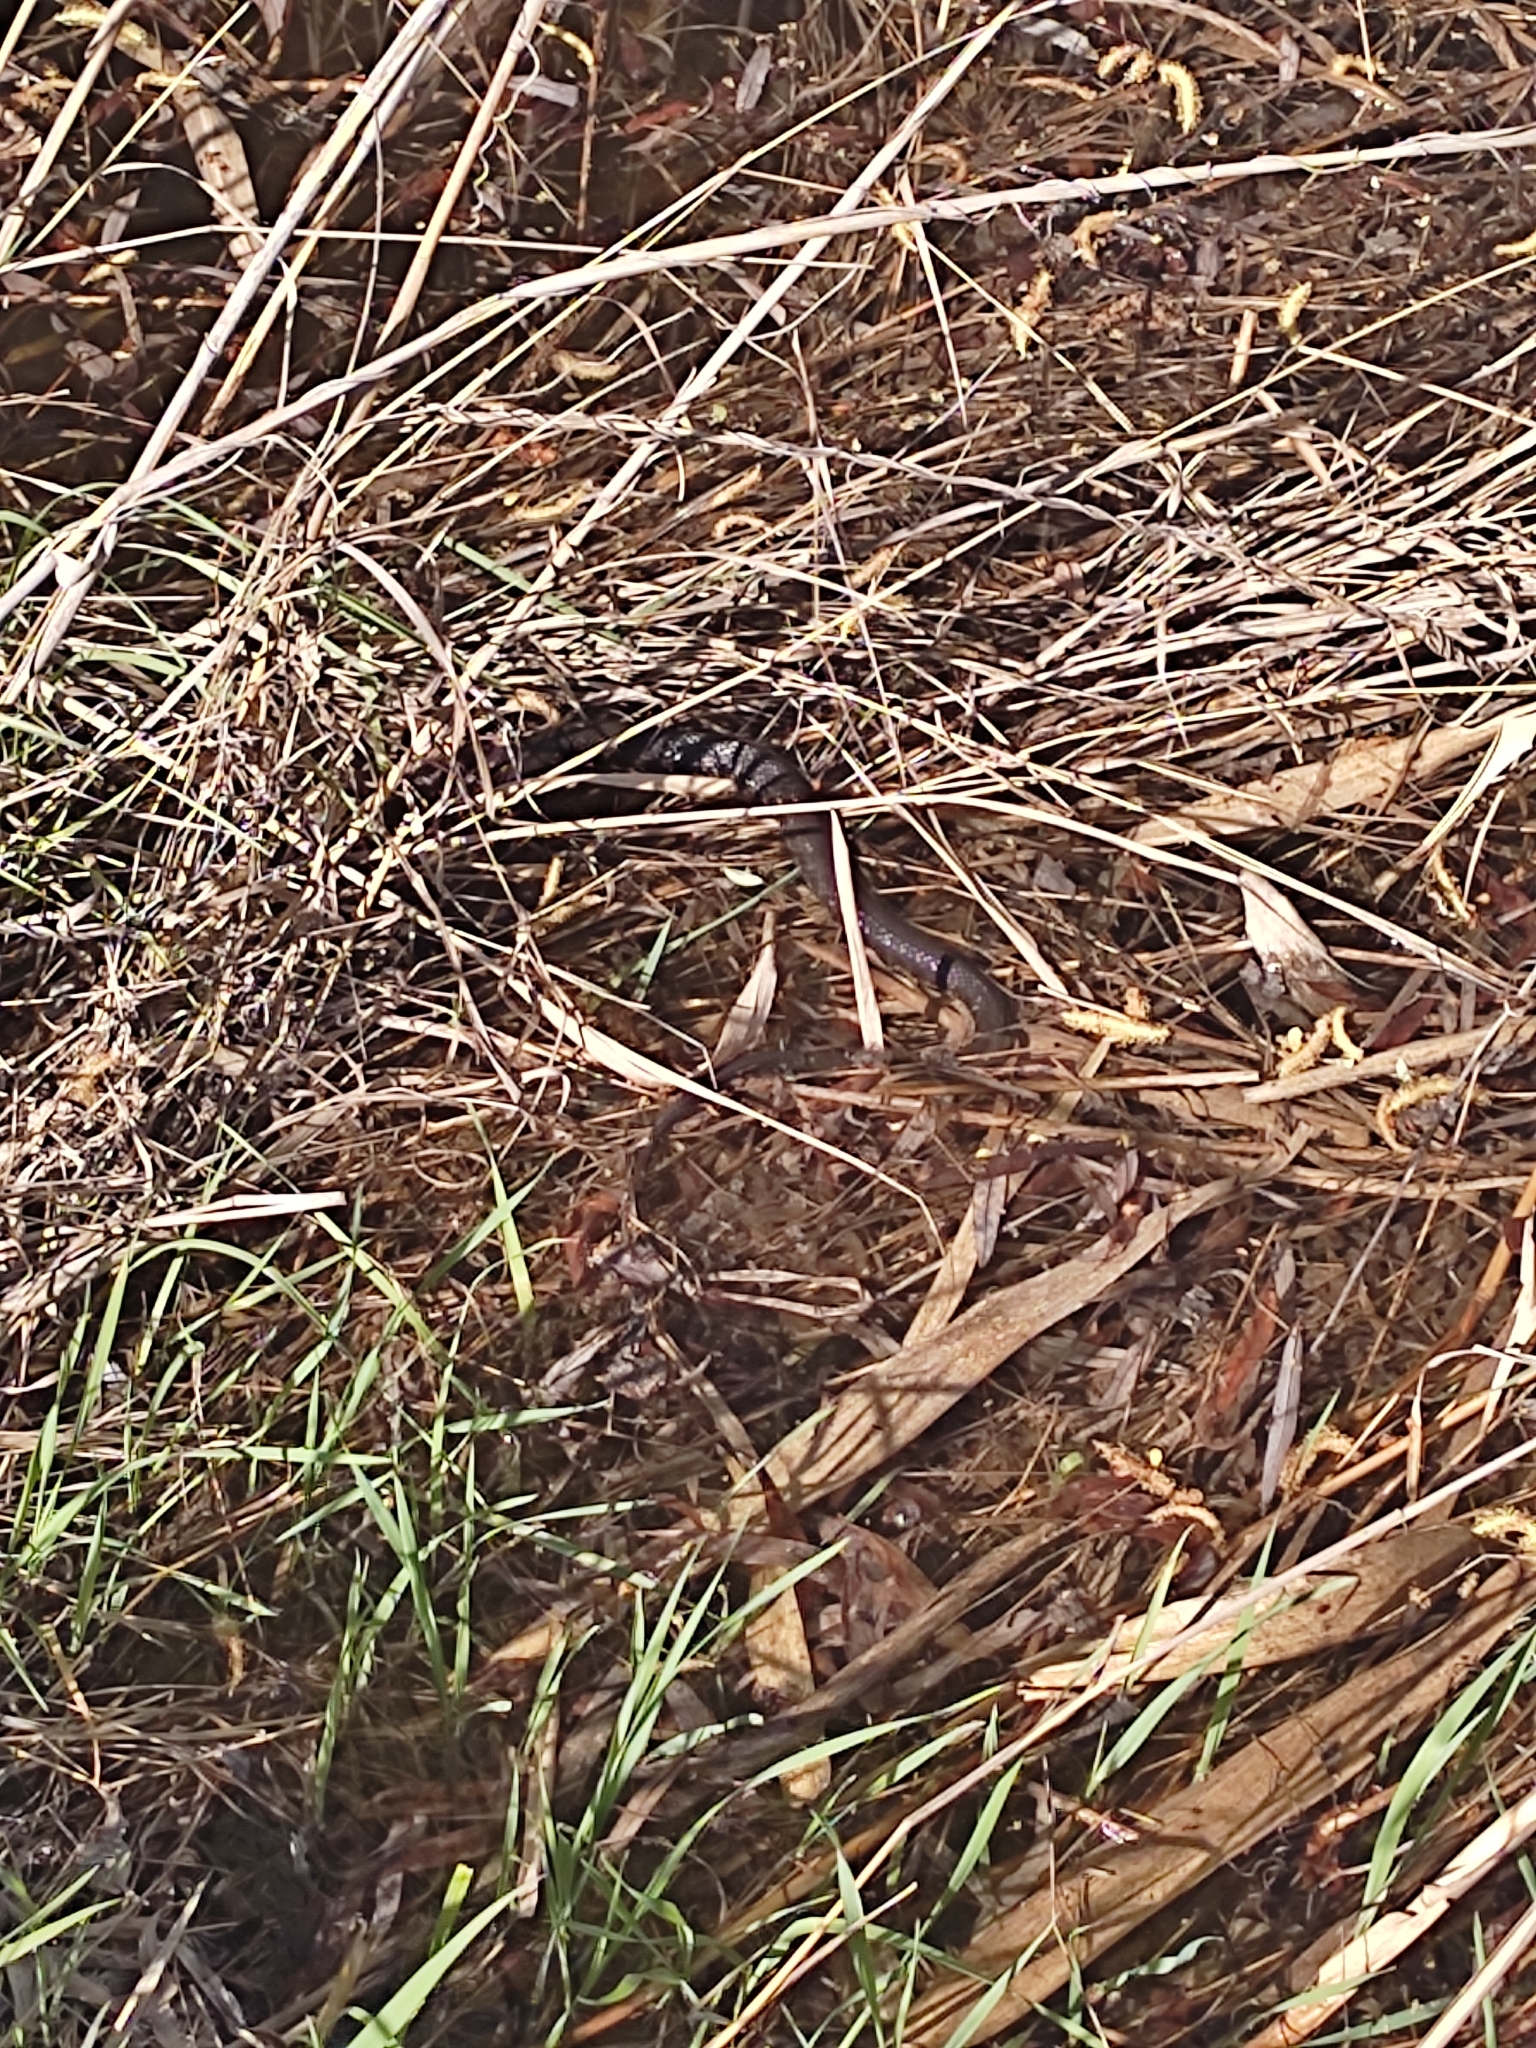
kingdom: Animalia
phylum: Chordata
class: Squamata
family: Colubridae
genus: Natrix
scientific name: Natrix
